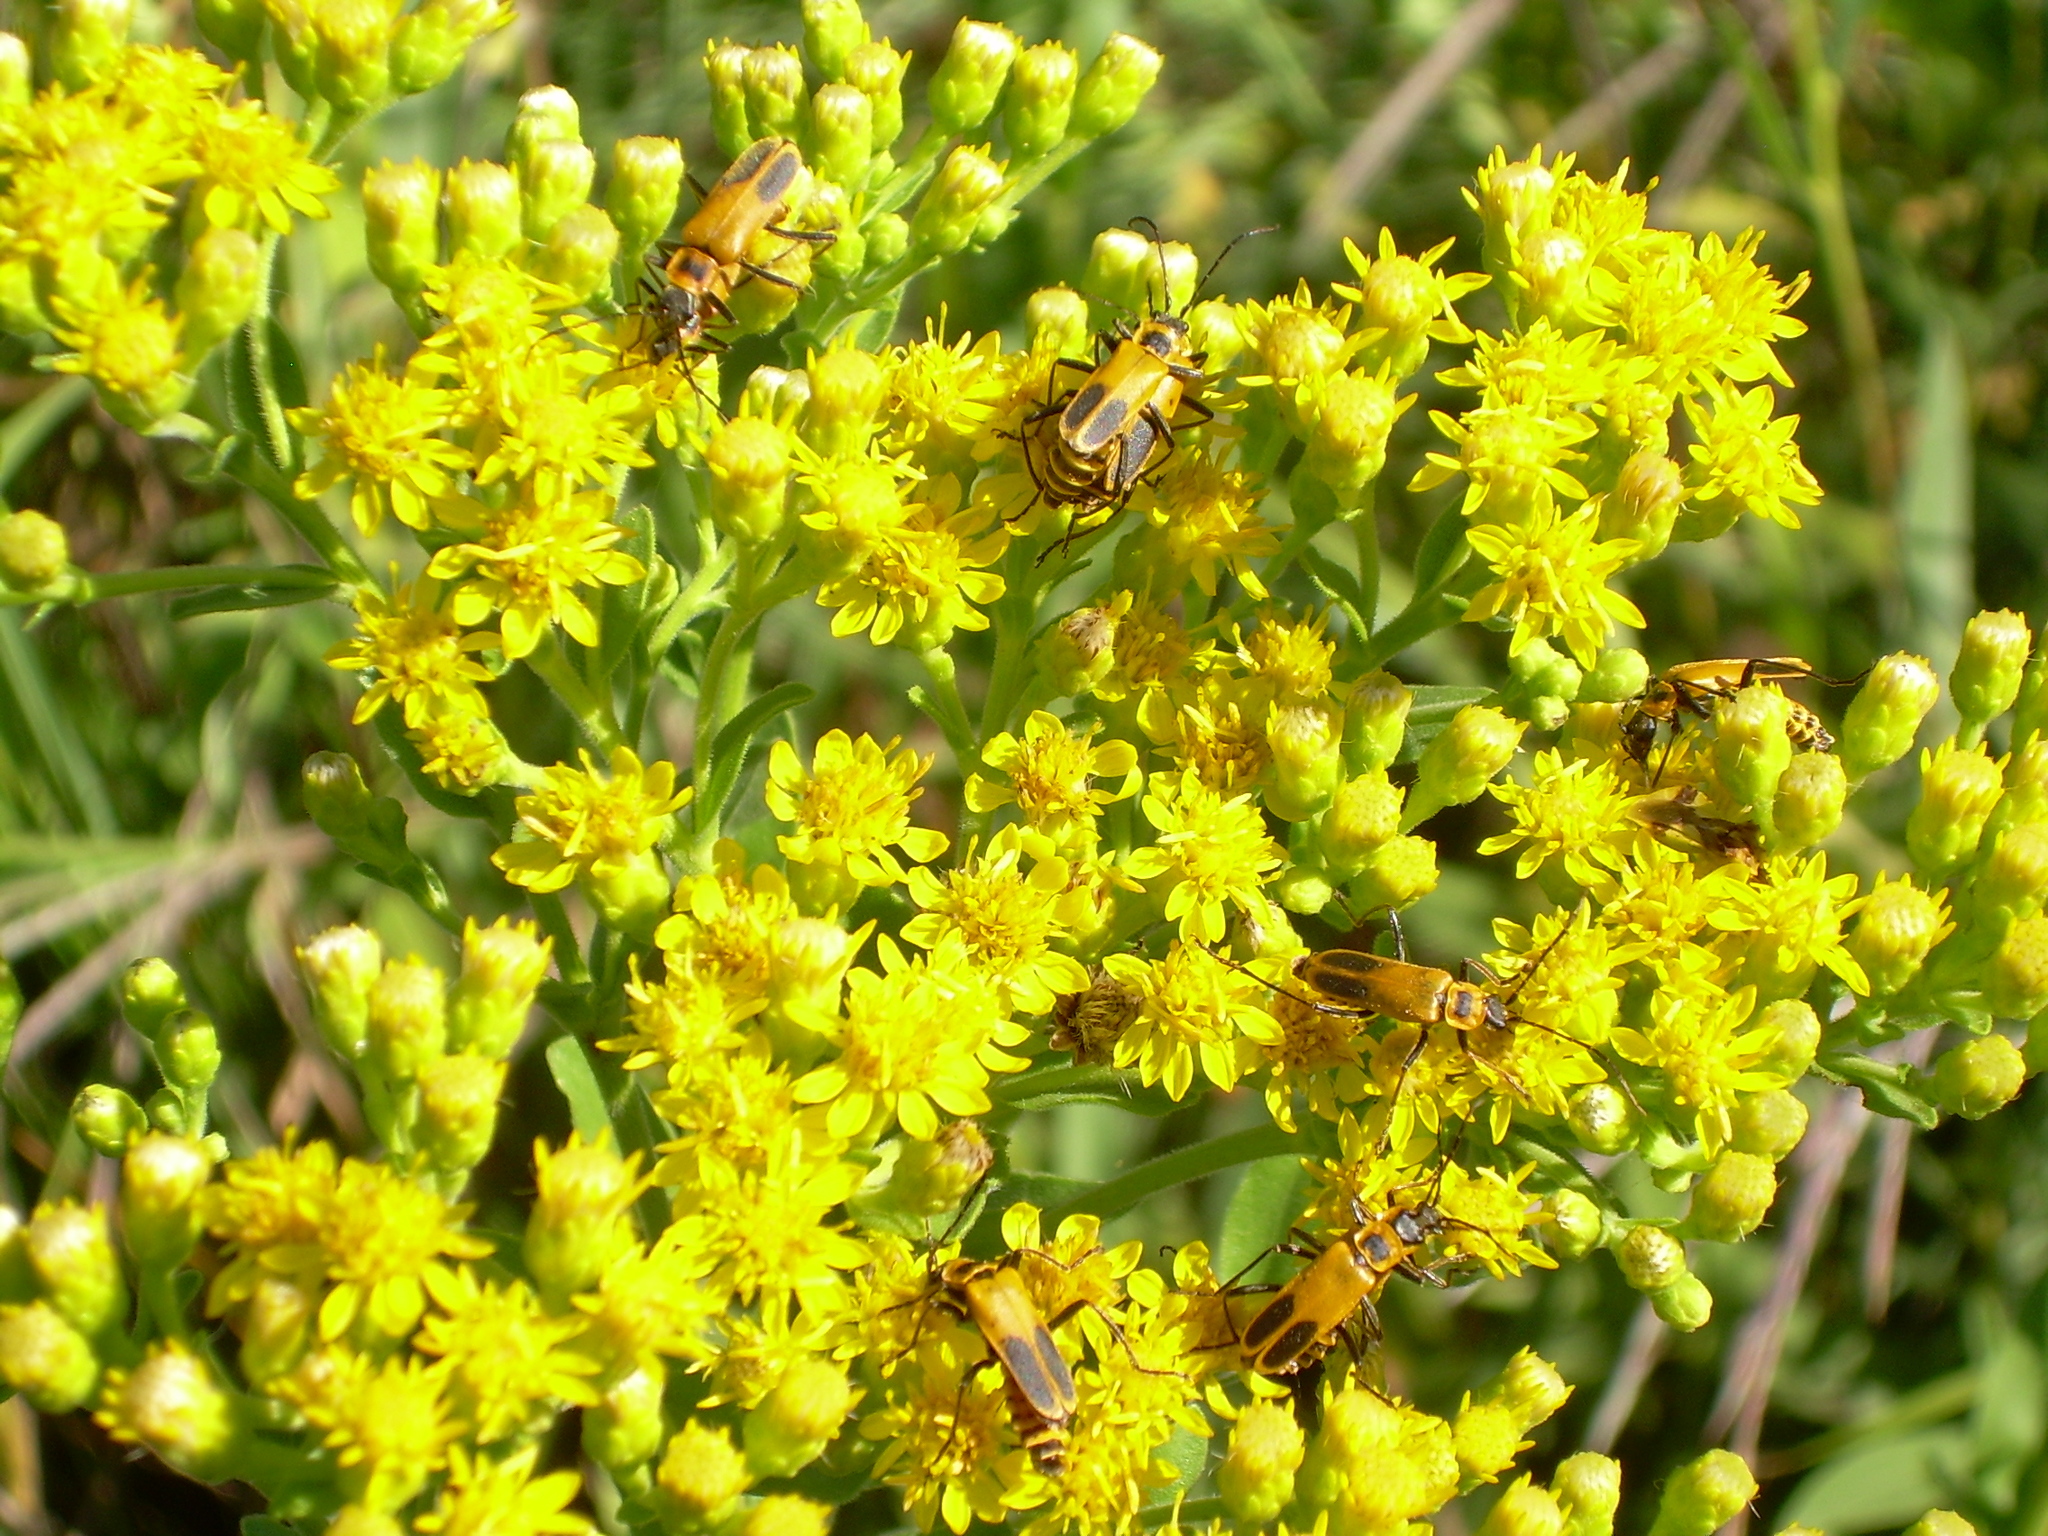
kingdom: Animalia
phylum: Arthropoda
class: Insecta
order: Coleoptera
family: Cantharidae
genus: Chauliognathus
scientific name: Chauliognathus pensylvanicus
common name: Goldenrod soldier beetle
